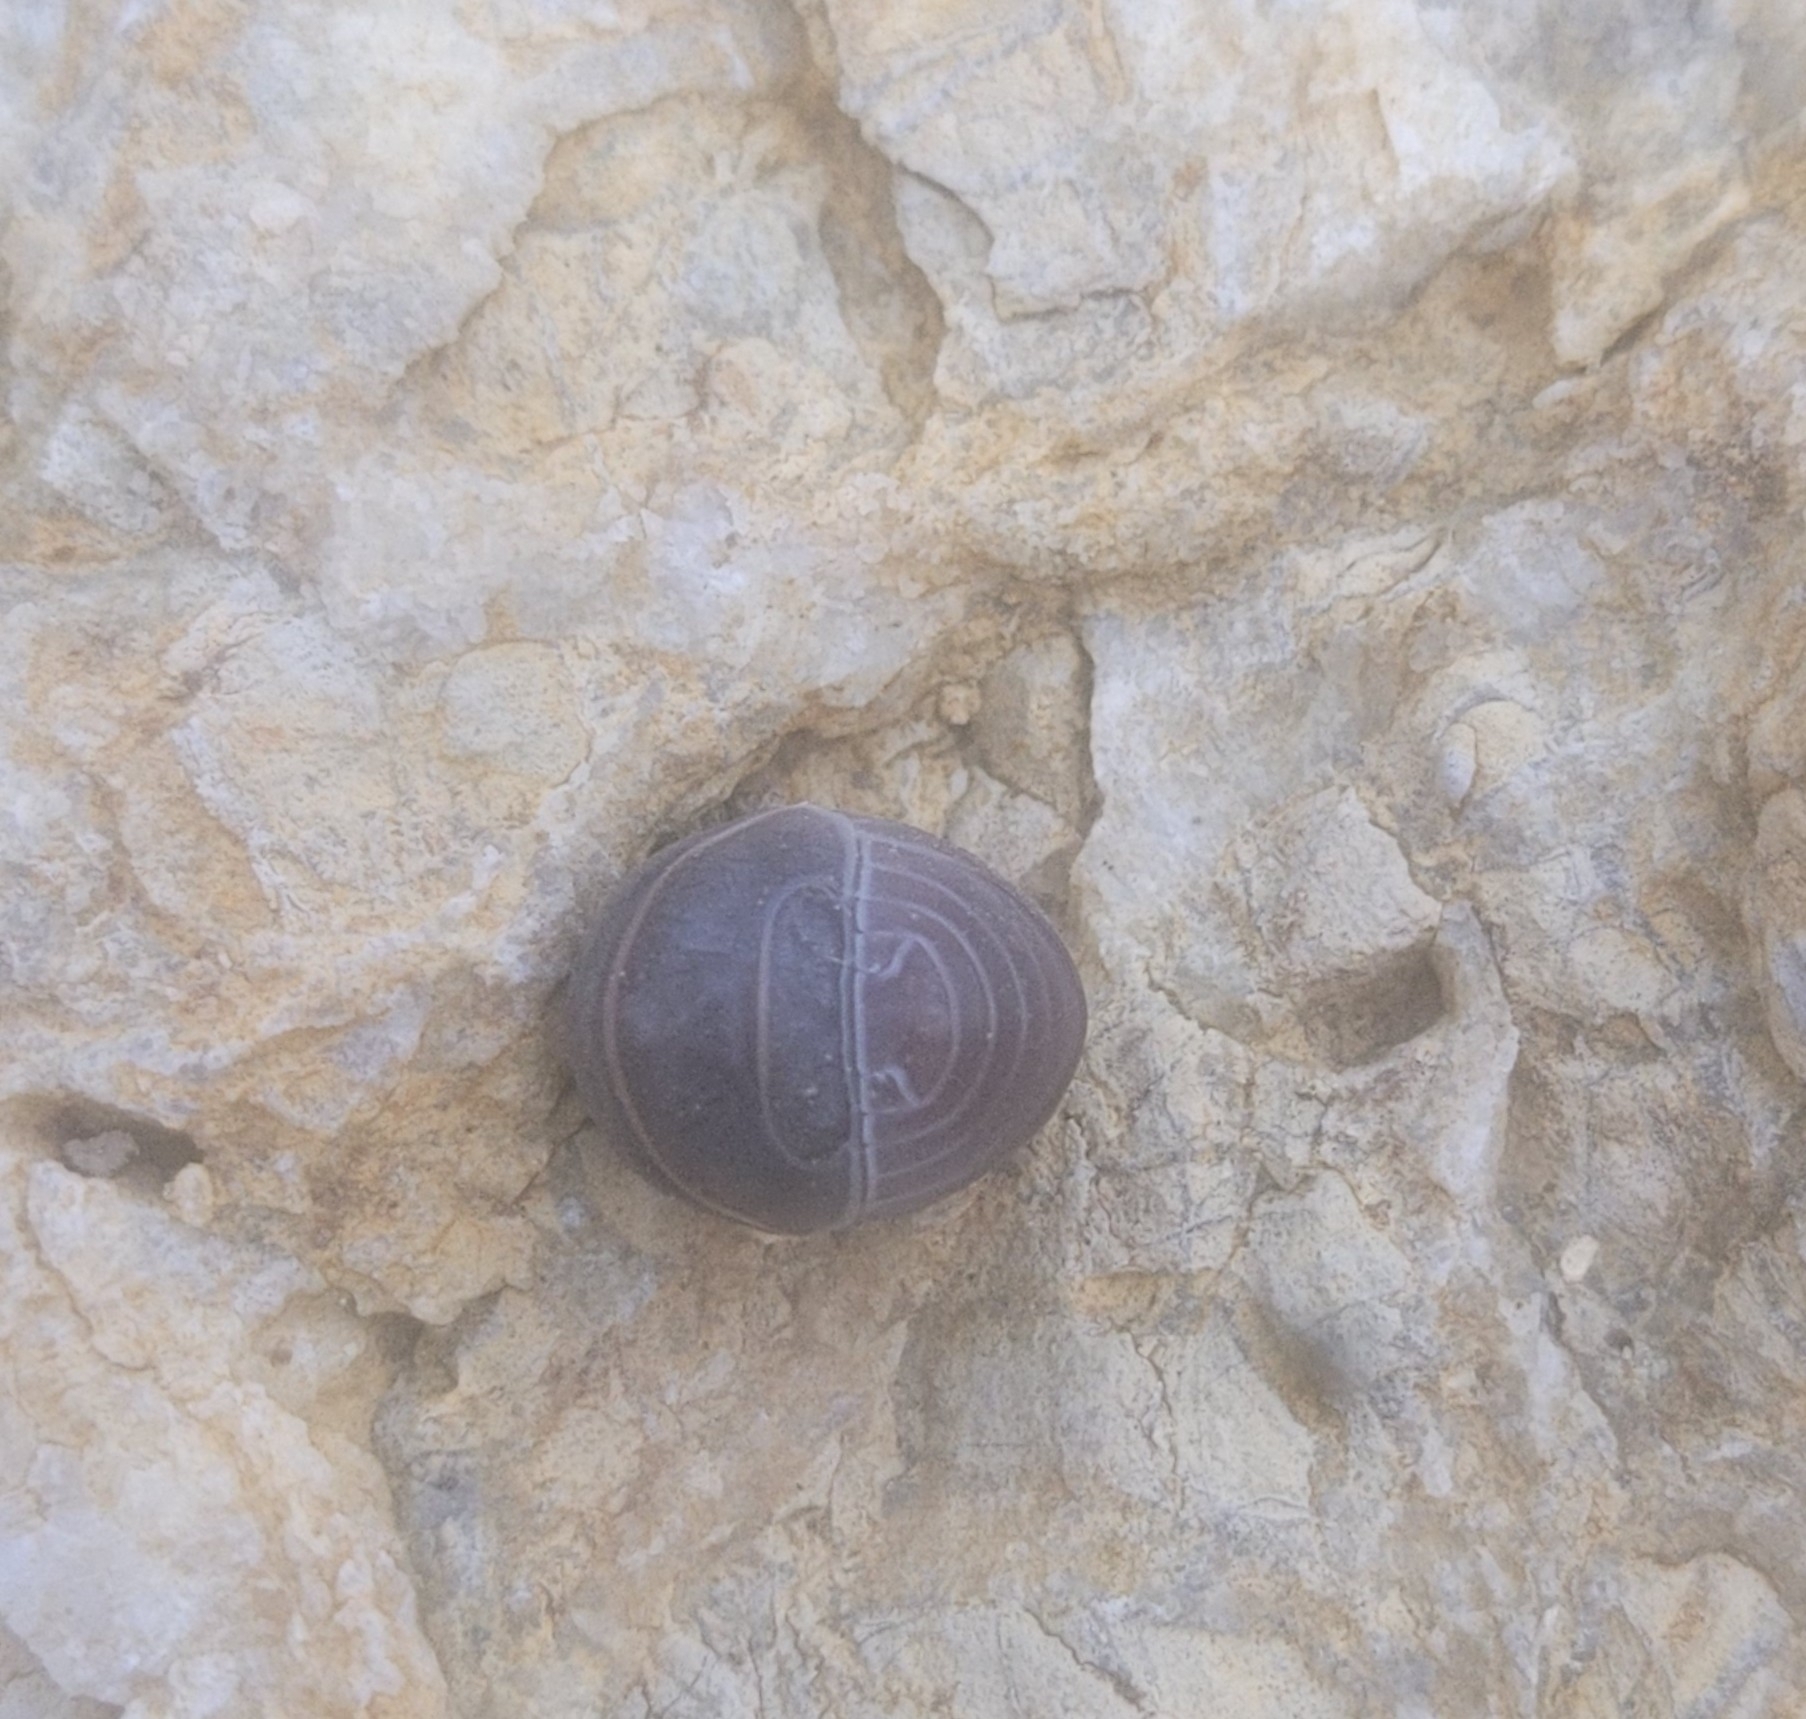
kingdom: Animalia
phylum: Arthropoda
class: Malacostraca
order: Isopoda
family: Armadillidae
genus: Armadillo
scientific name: Armadillo officinalis
